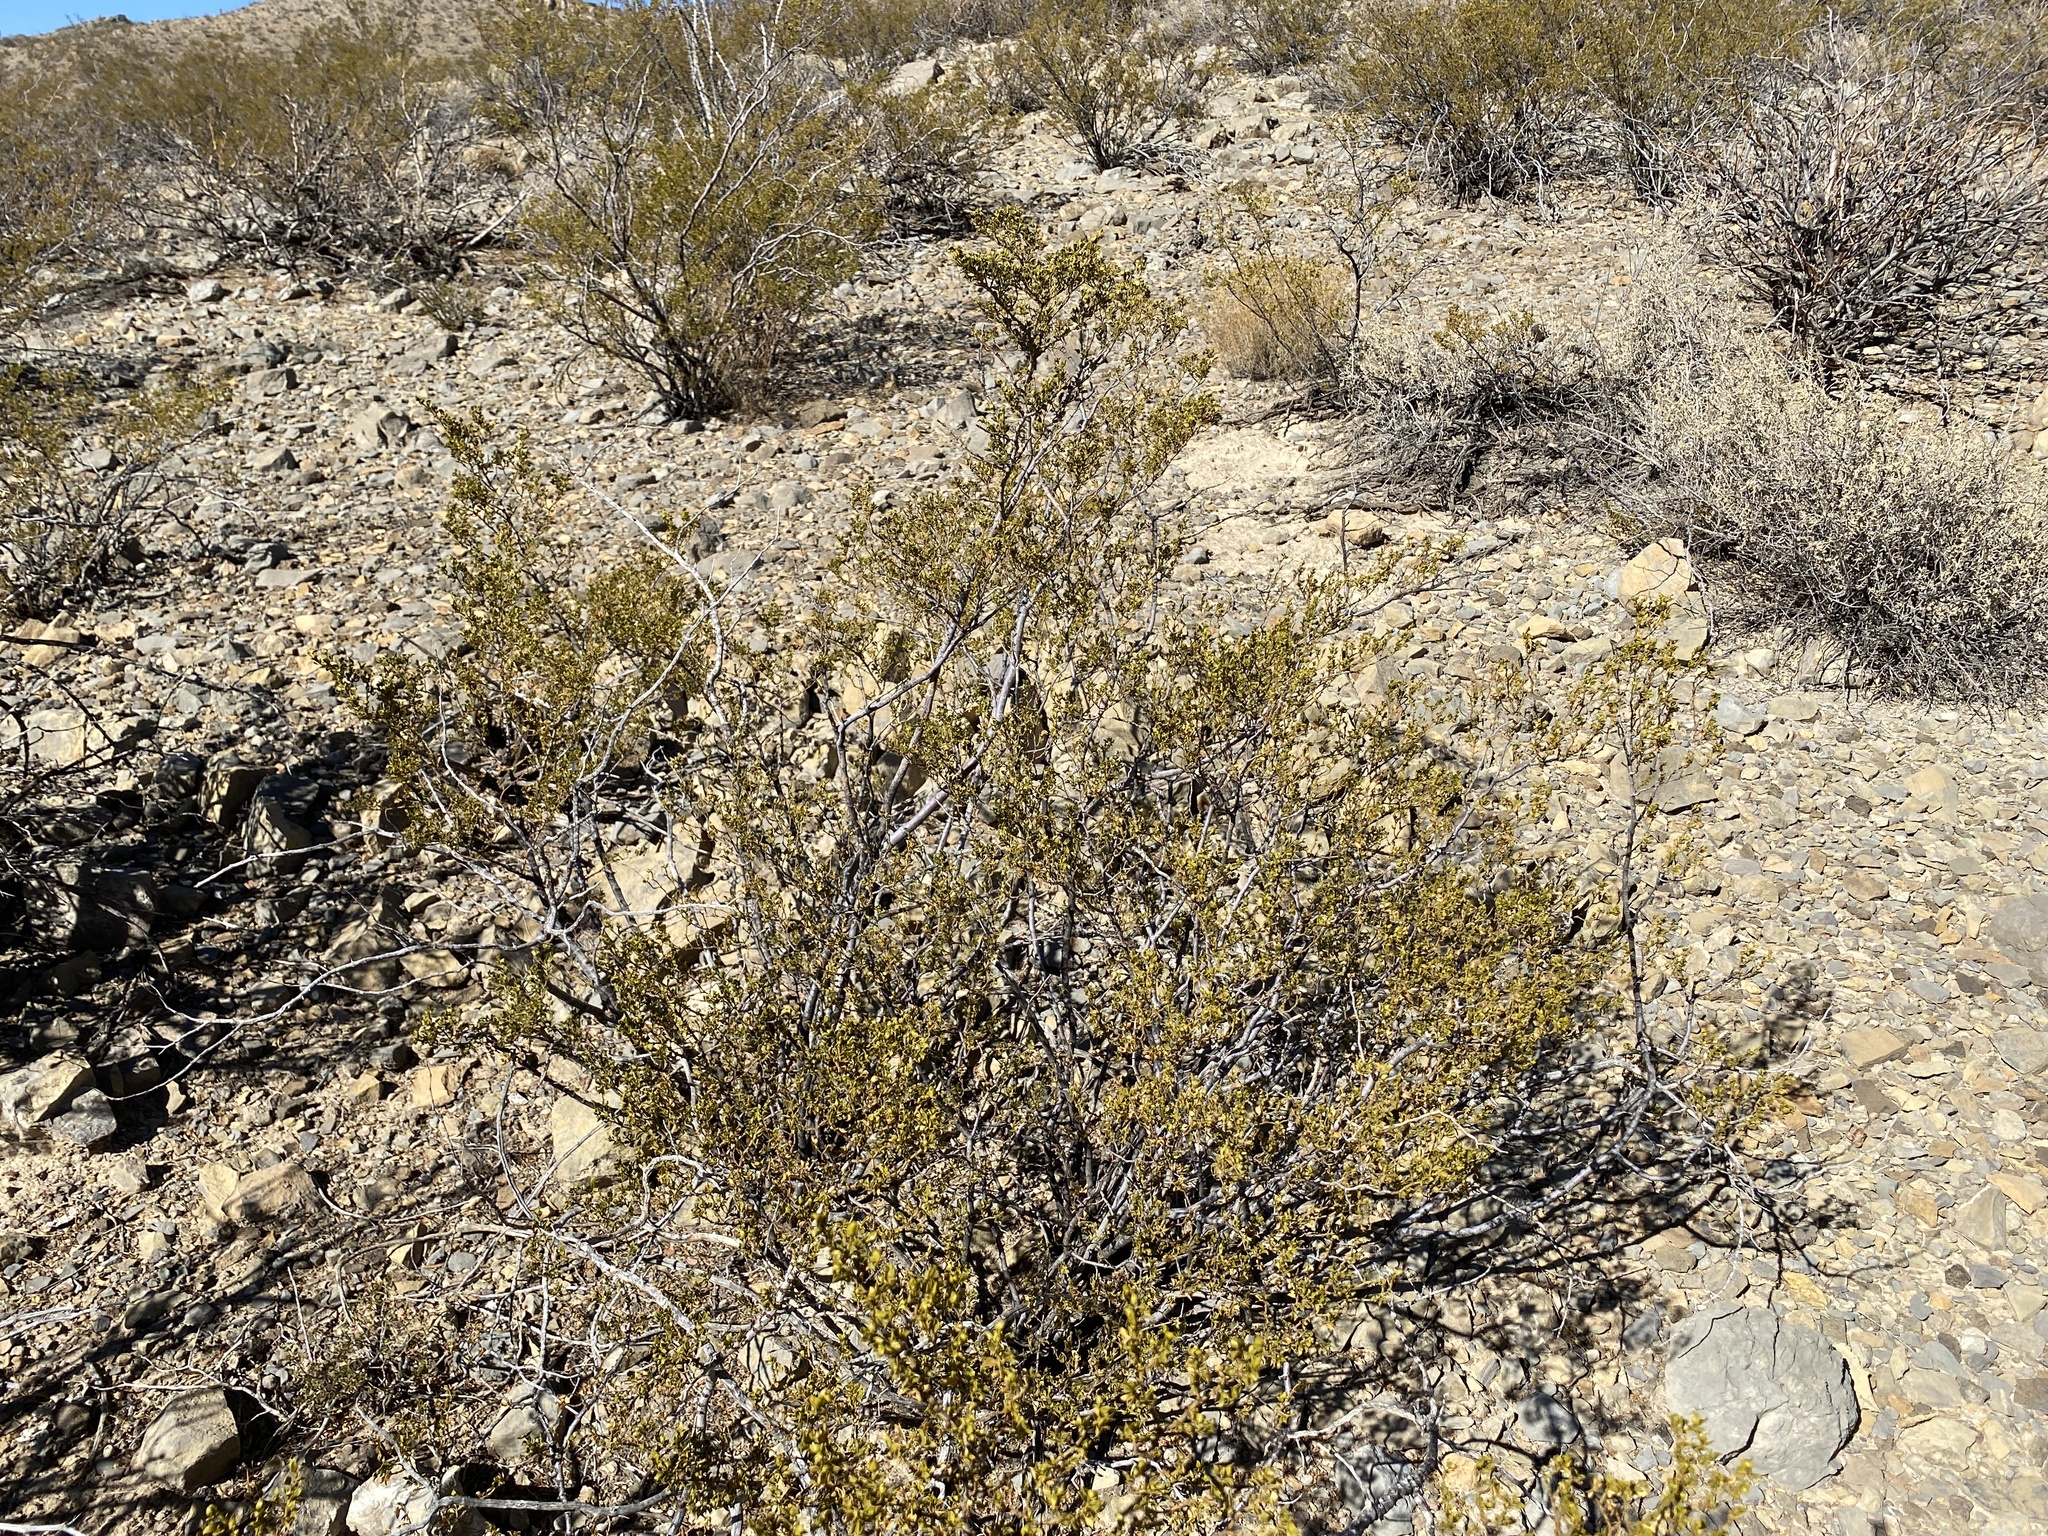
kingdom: Plantae
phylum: Tracheophyta
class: Magnoliopsida
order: Zygophyllales
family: Zygophyllaceae
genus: Larrea
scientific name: Larrea tridentata
